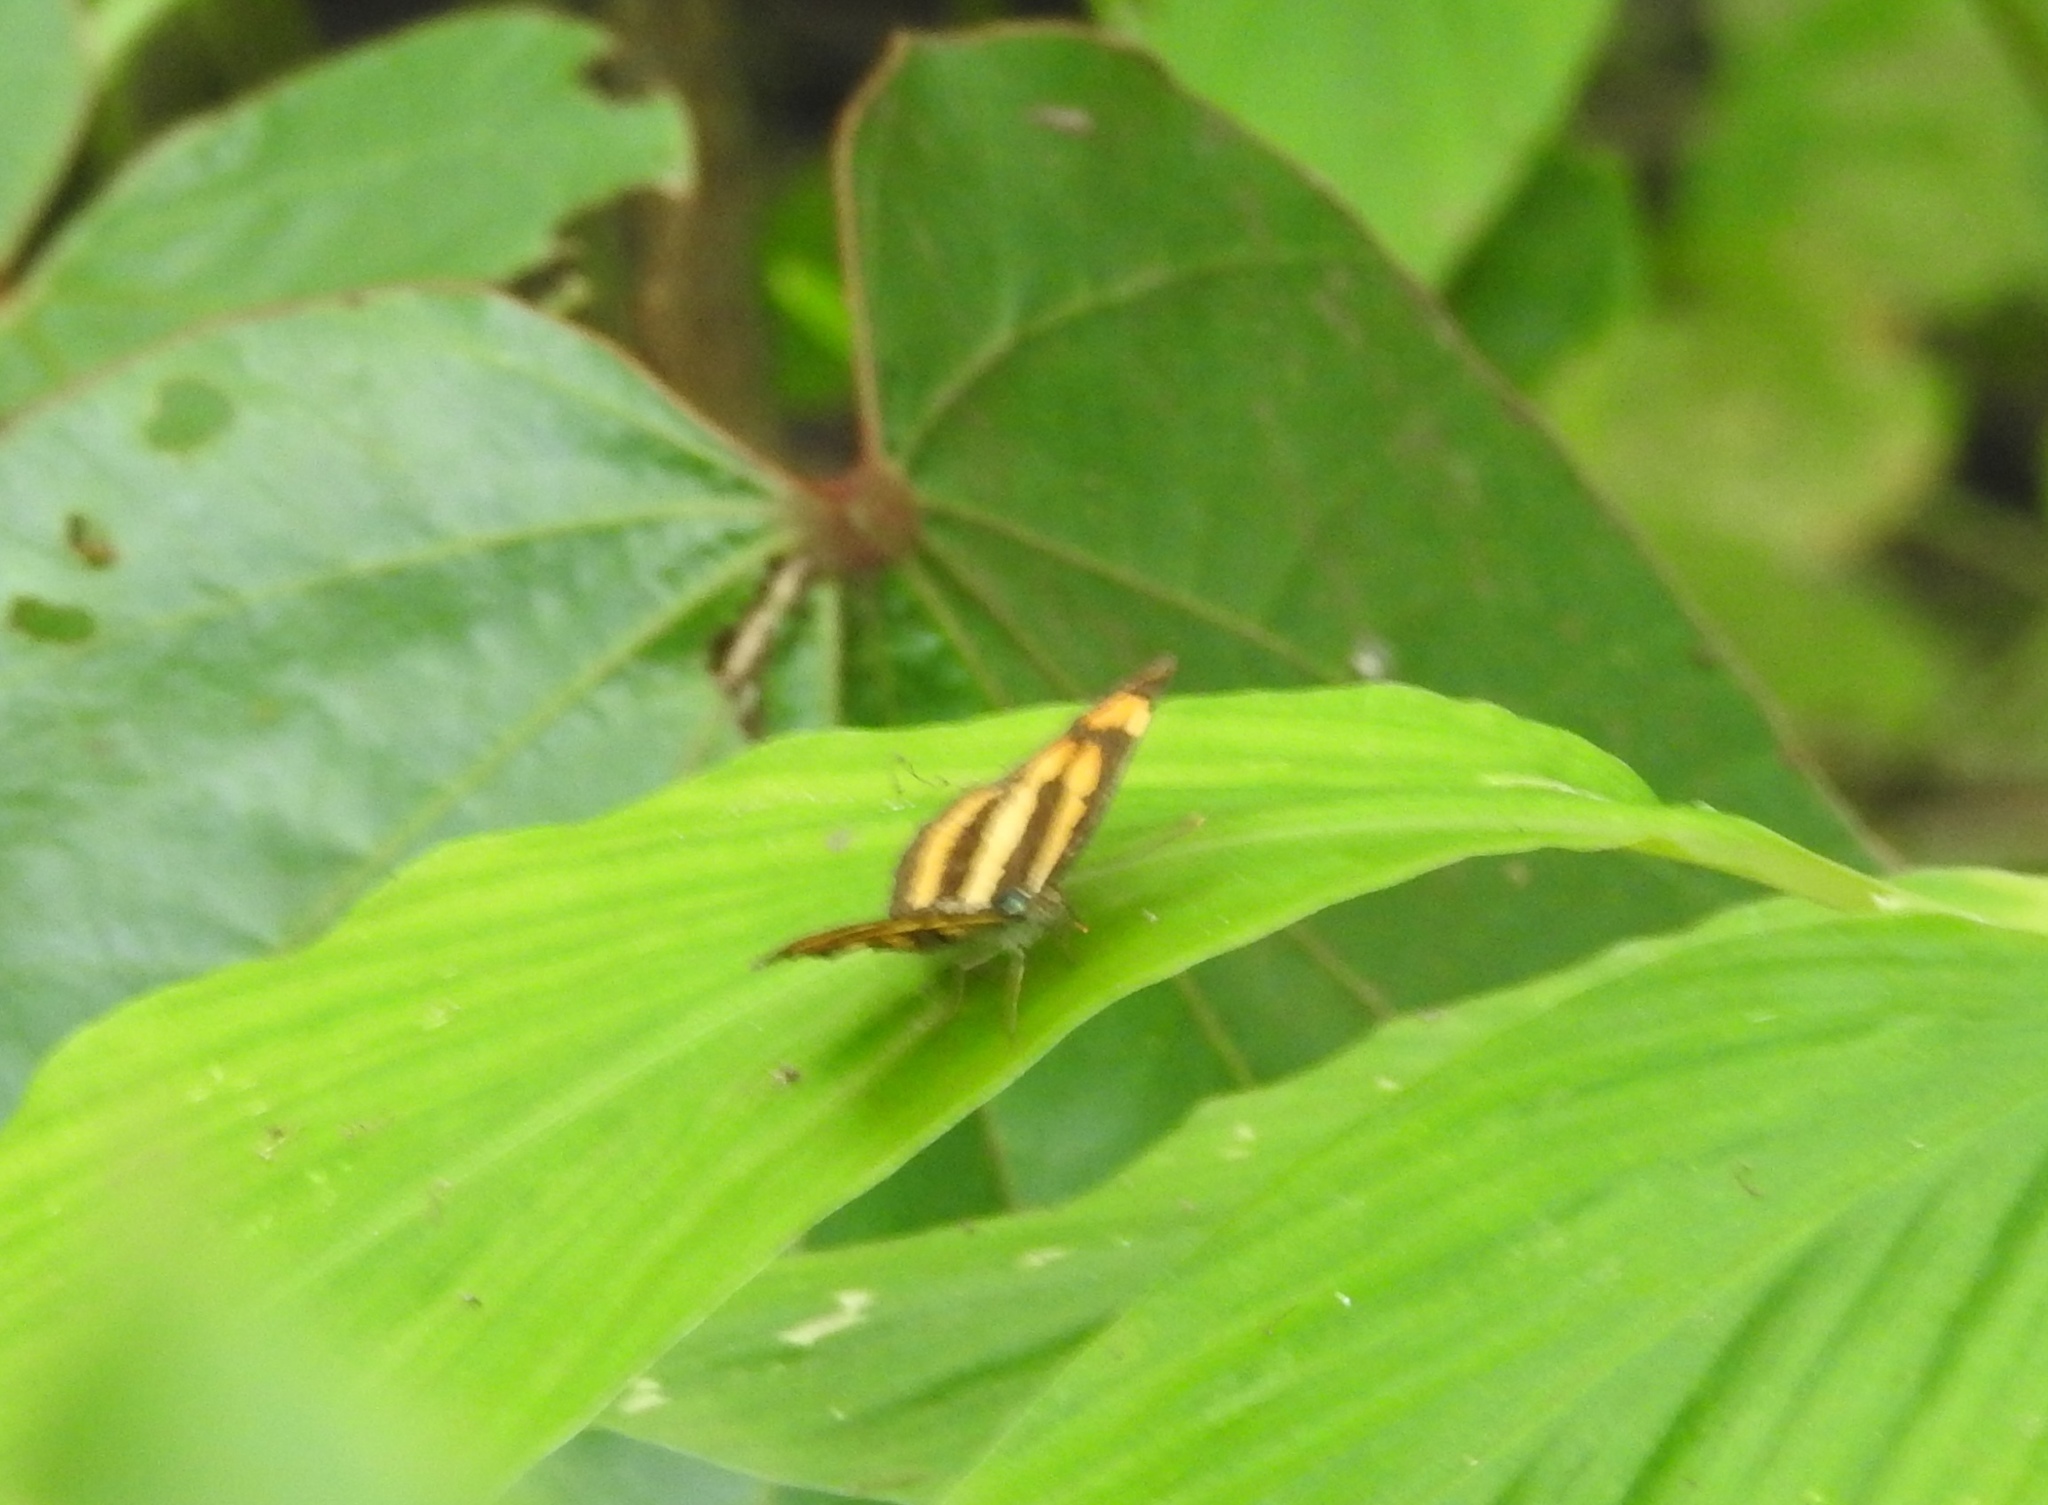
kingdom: Animalia
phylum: Arthropoda
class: Insecta
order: Lepidoptera
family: Nymphalidae
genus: Pantoporia
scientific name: Pantoporia hordonia
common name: Common lascar
